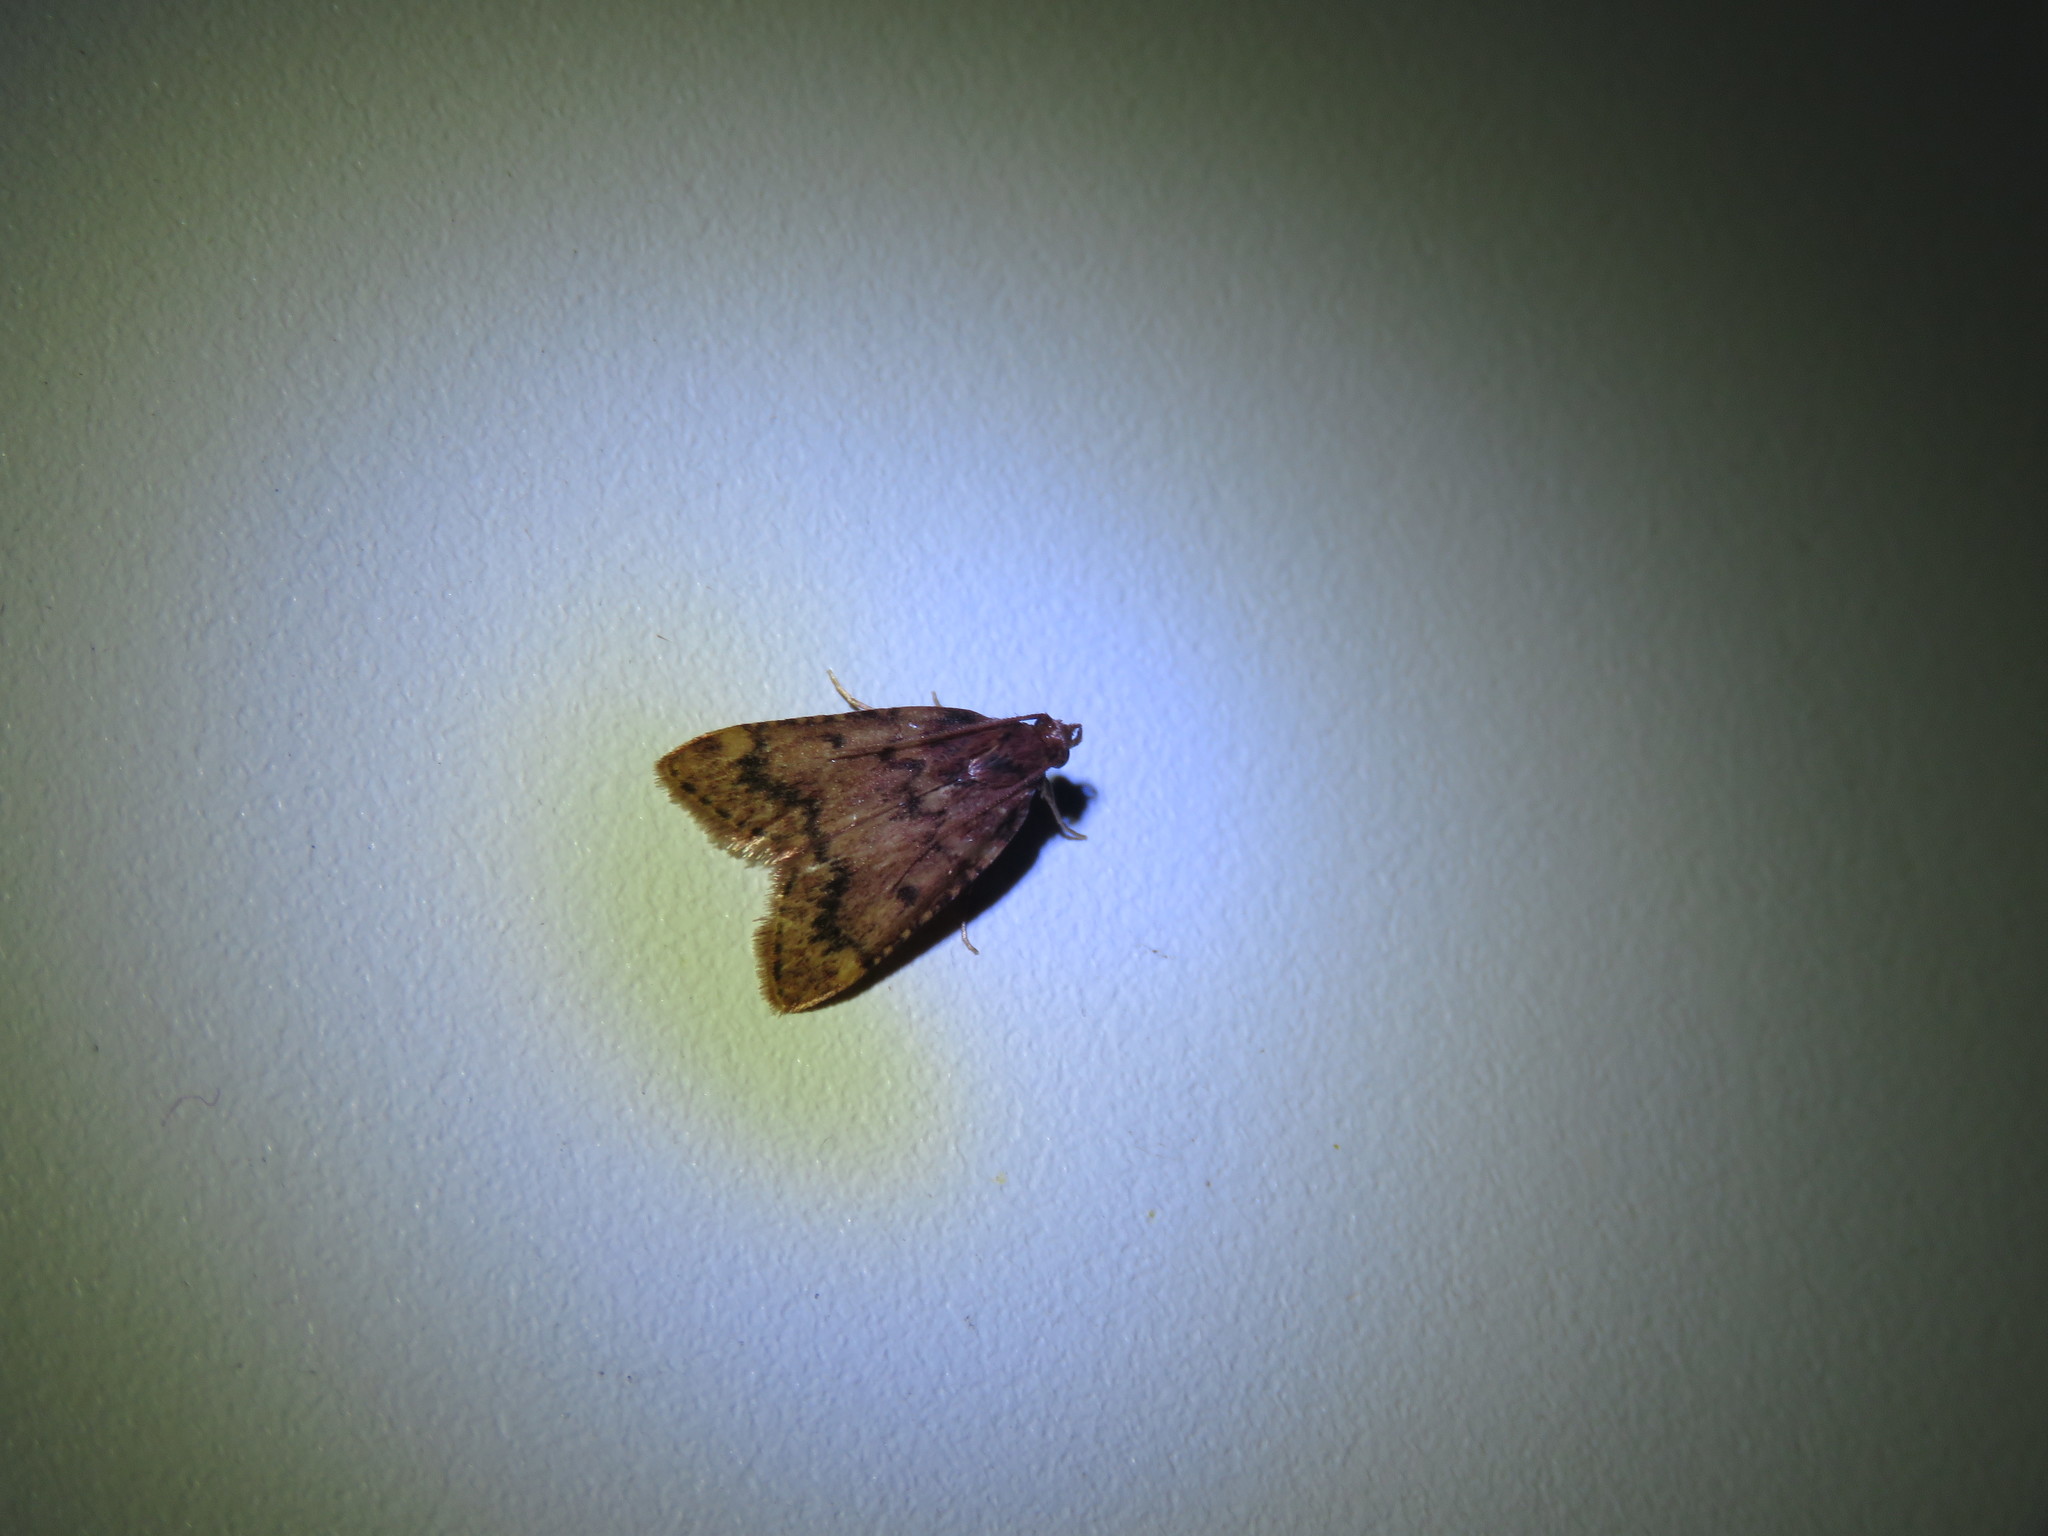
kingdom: Animalia
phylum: Arthropoda
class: Insecta
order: Lepidoptera
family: Pyralidae
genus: Aglossa
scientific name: Aglossa disciferalis
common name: Pink-masked pyralid moth
